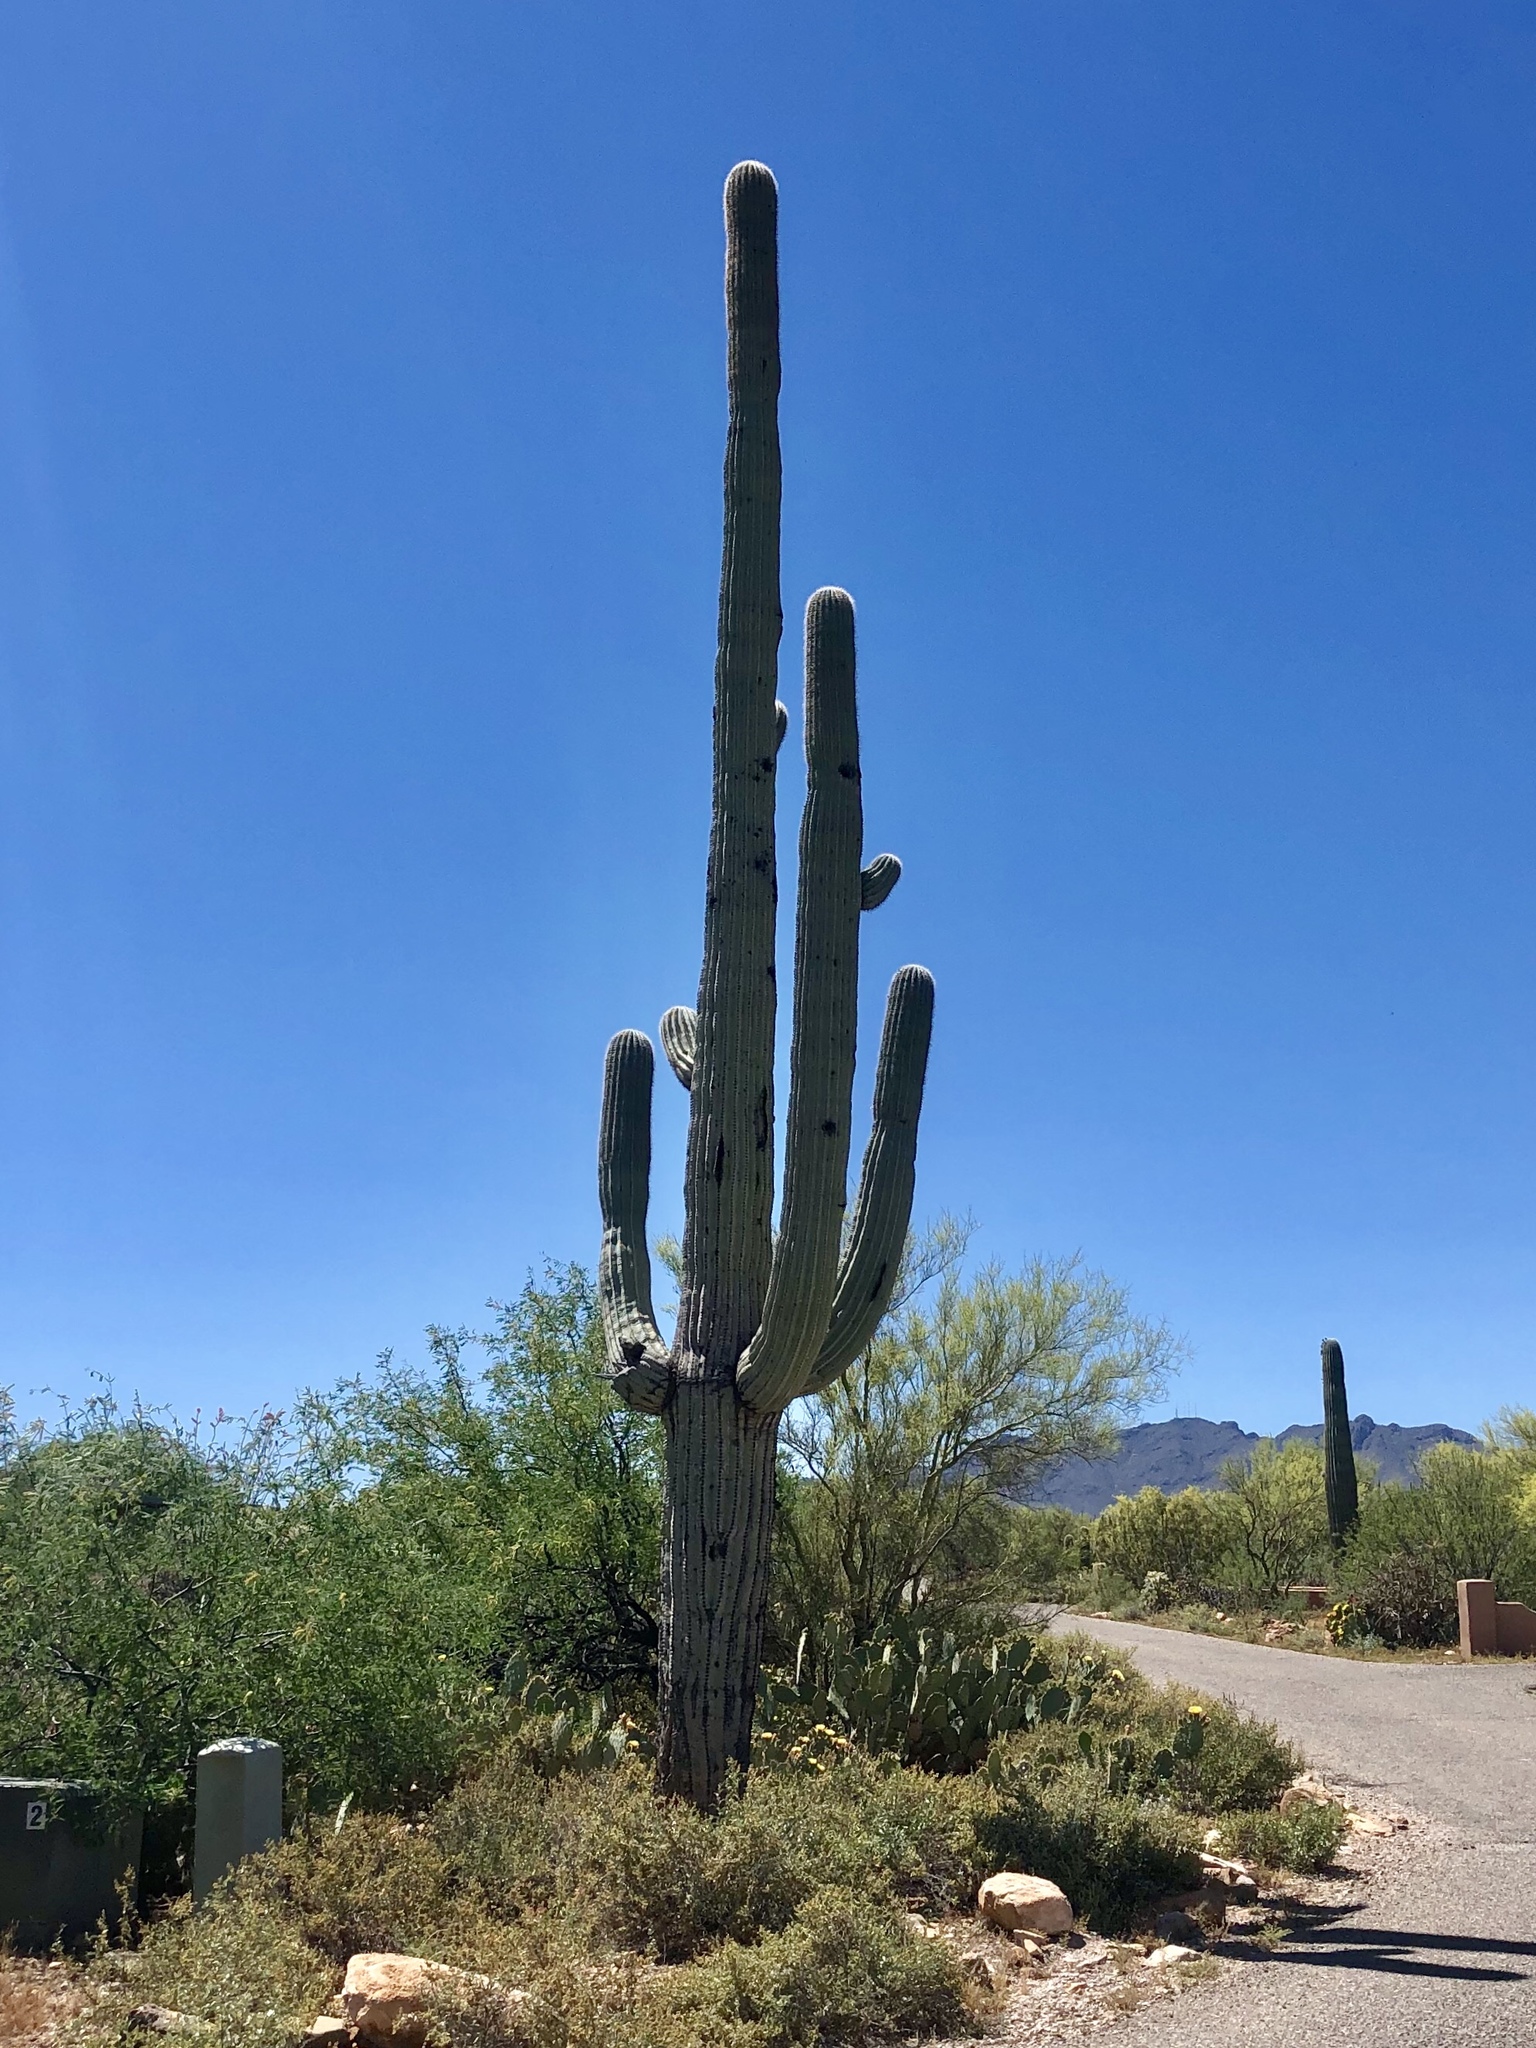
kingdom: Plantae
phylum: Tracheophyta
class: Magnoliopsida
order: Caryophyllales
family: Cactaceae
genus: Carnegiea
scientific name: Carnegiea gigantea
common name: Saguaro
